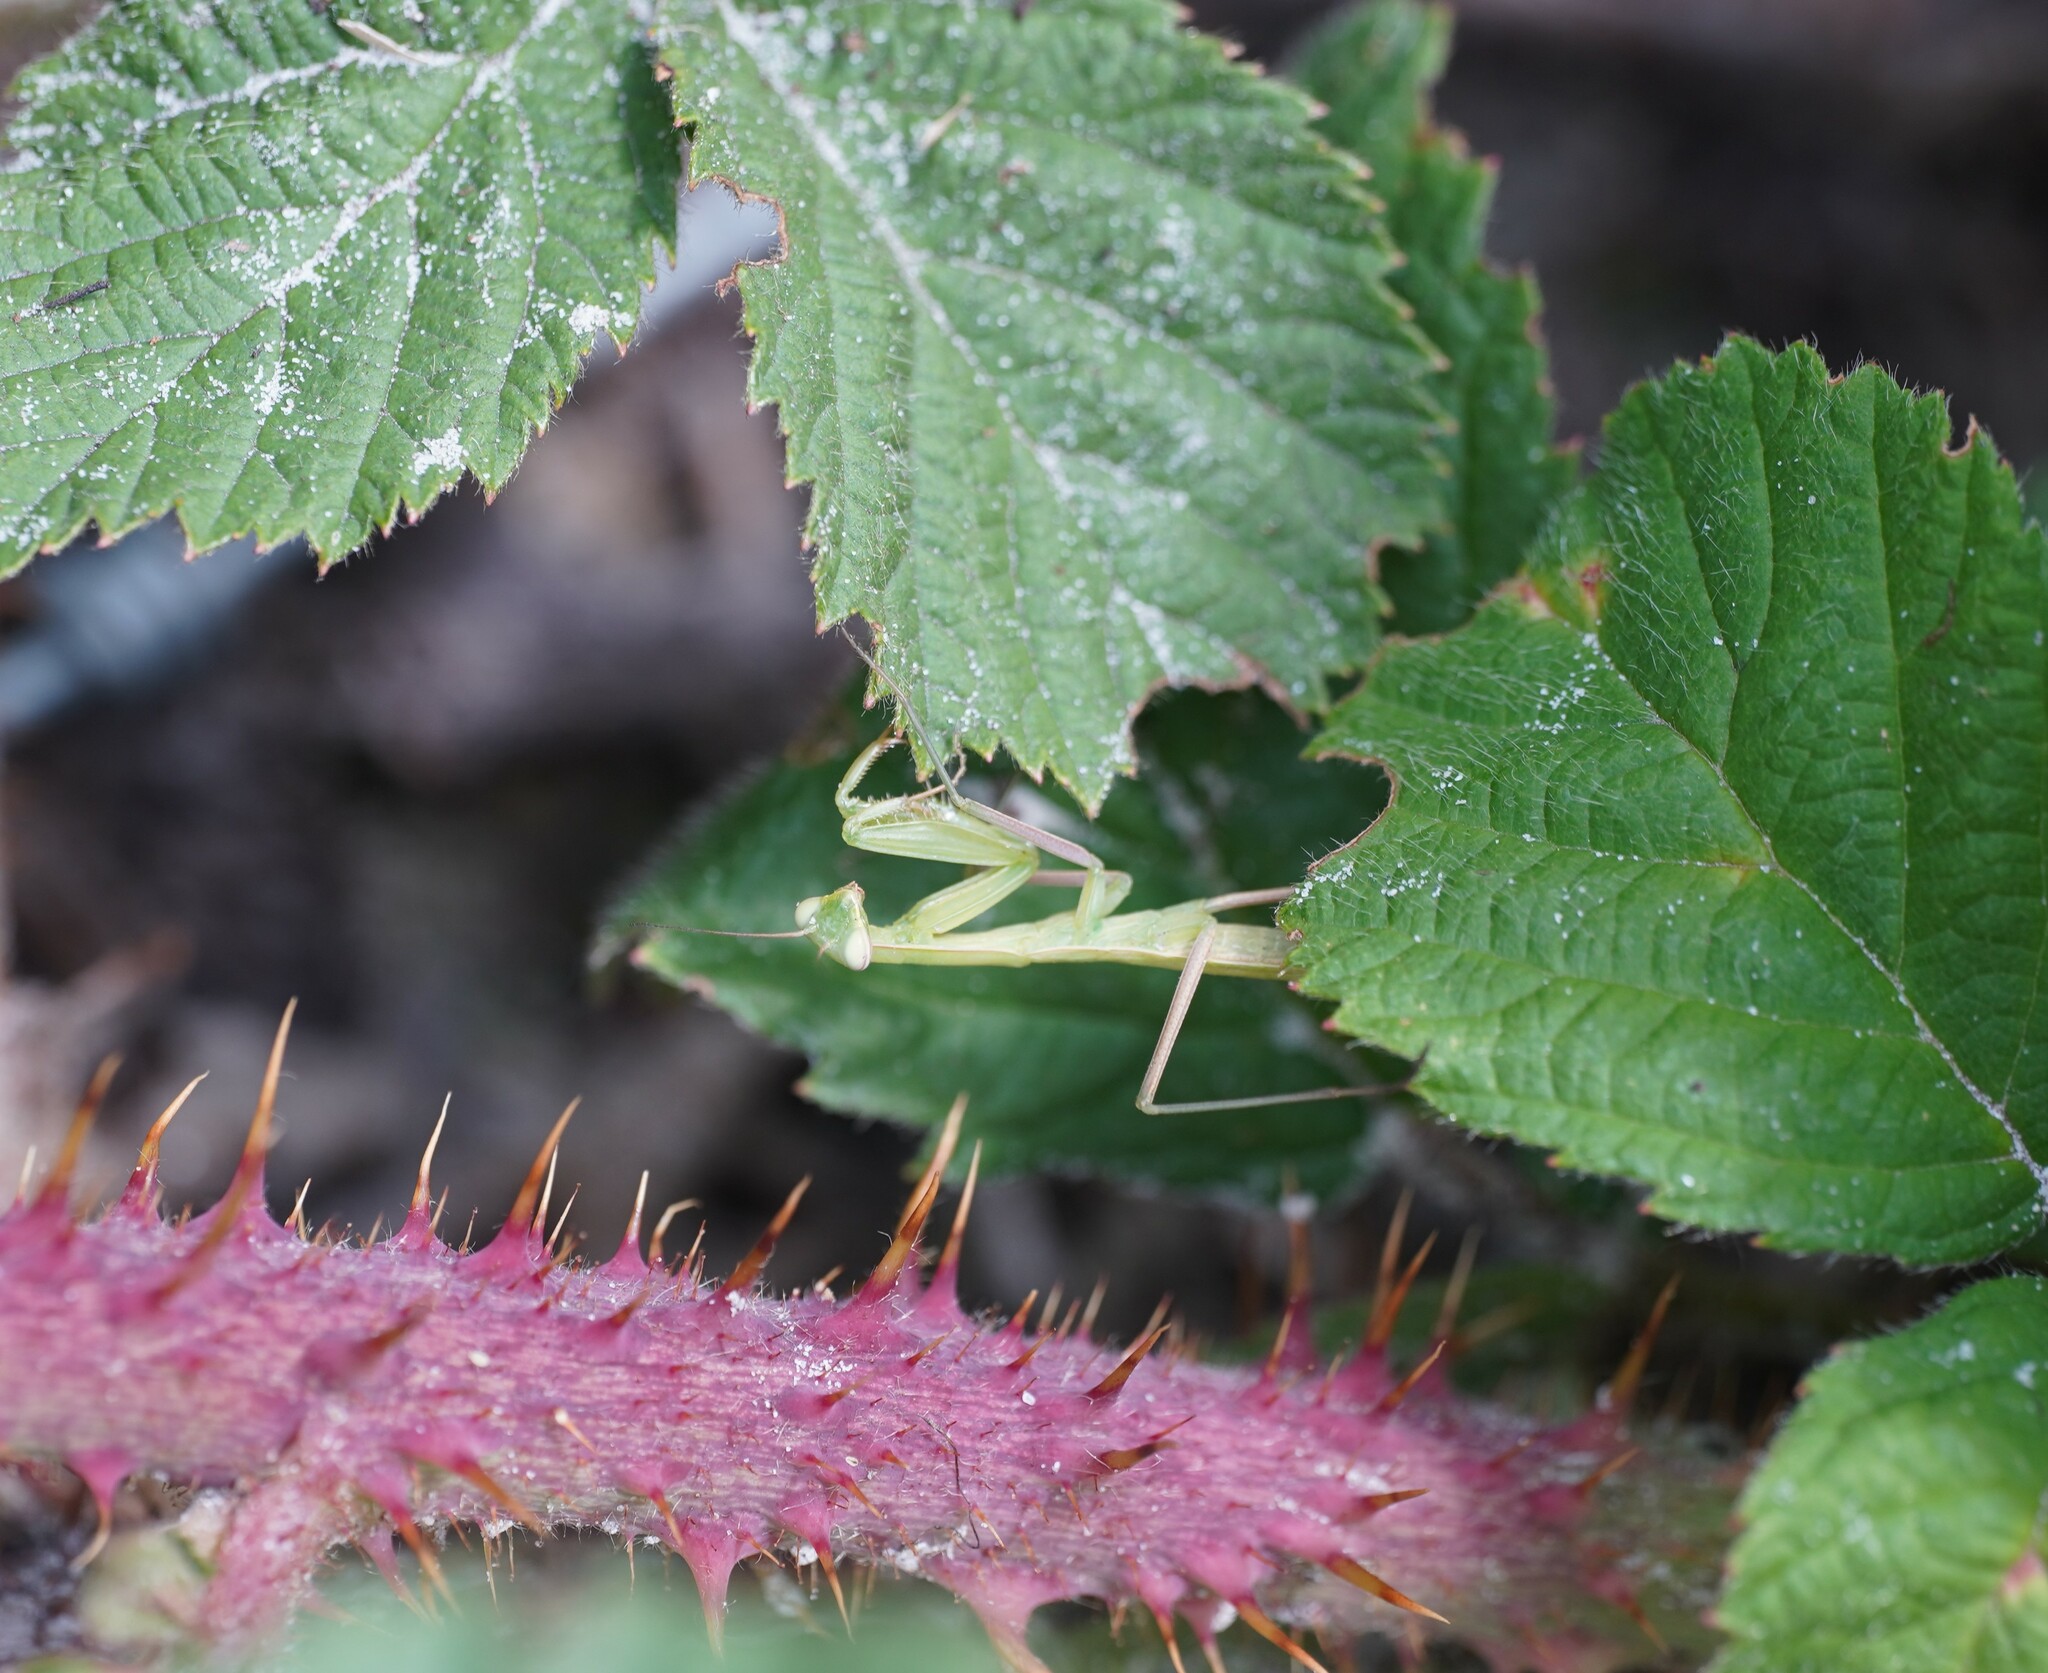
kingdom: Animalia
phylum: Arthropoda
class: Insecta
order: Mantodea
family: Mantidae
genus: Mantis
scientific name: Mantis religiosa
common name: Praying mantis
